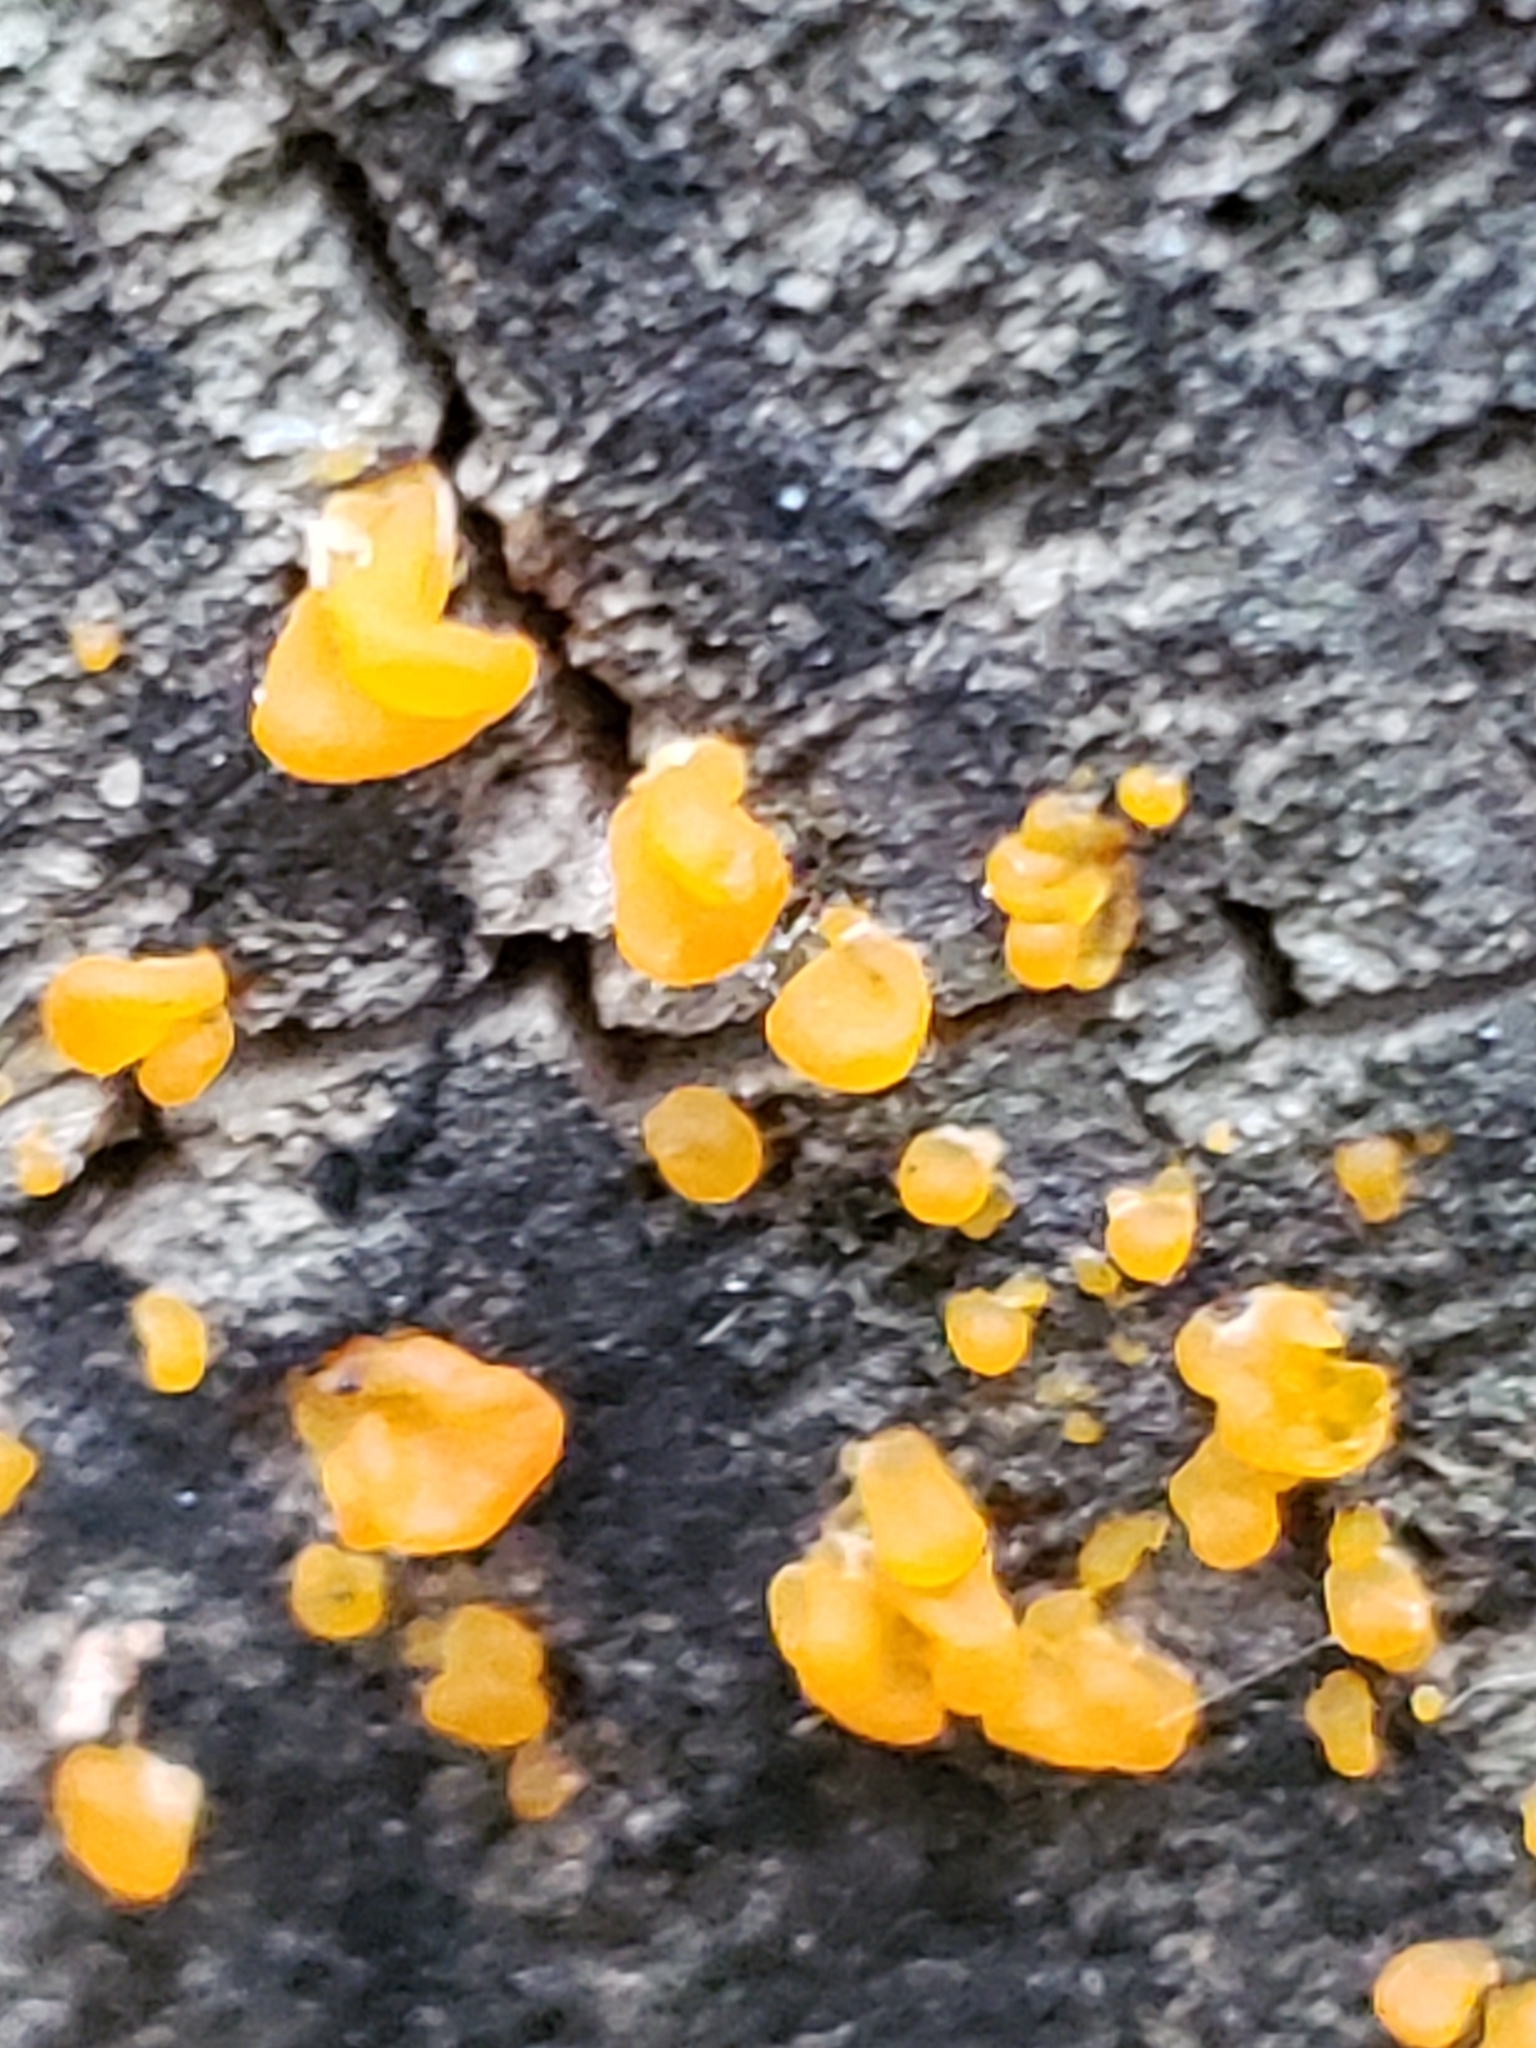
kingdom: Fungi
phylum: Basidiomycota
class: Dacrymycetes
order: Dacrymycetales
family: Dacrymycetaceae
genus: Dacrymyces
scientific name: Dacrymyces stillatus
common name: Common jelly spot
